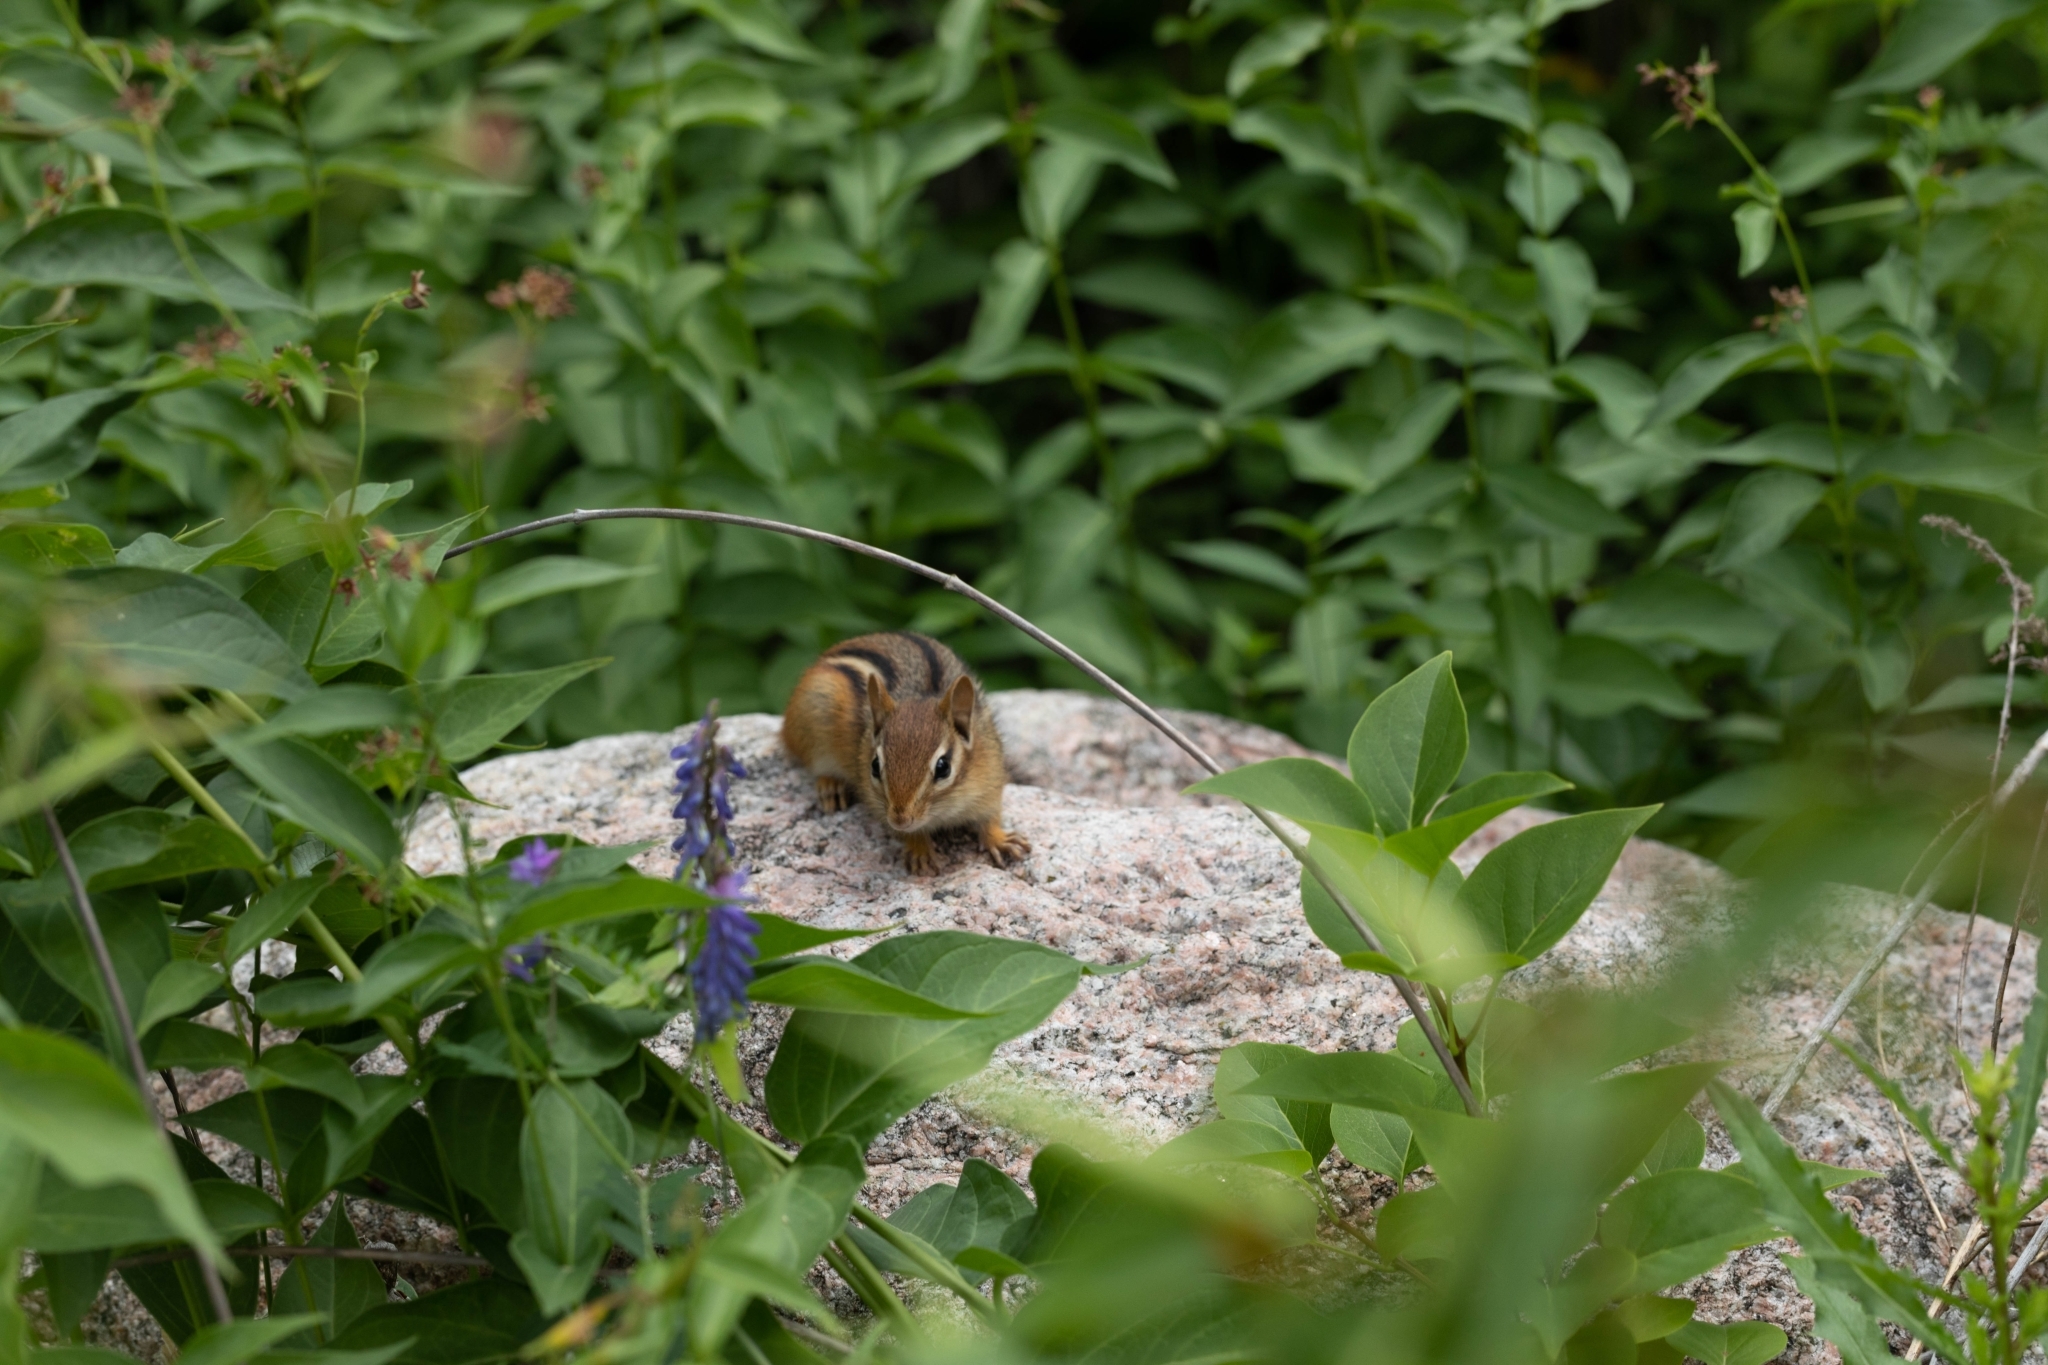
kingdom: Animalia
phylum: Chordata
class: Mammalia
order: Rodentia
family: Sciuridae
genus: Tamias
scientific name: Tamias striatus
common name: Eastern chipmunk
